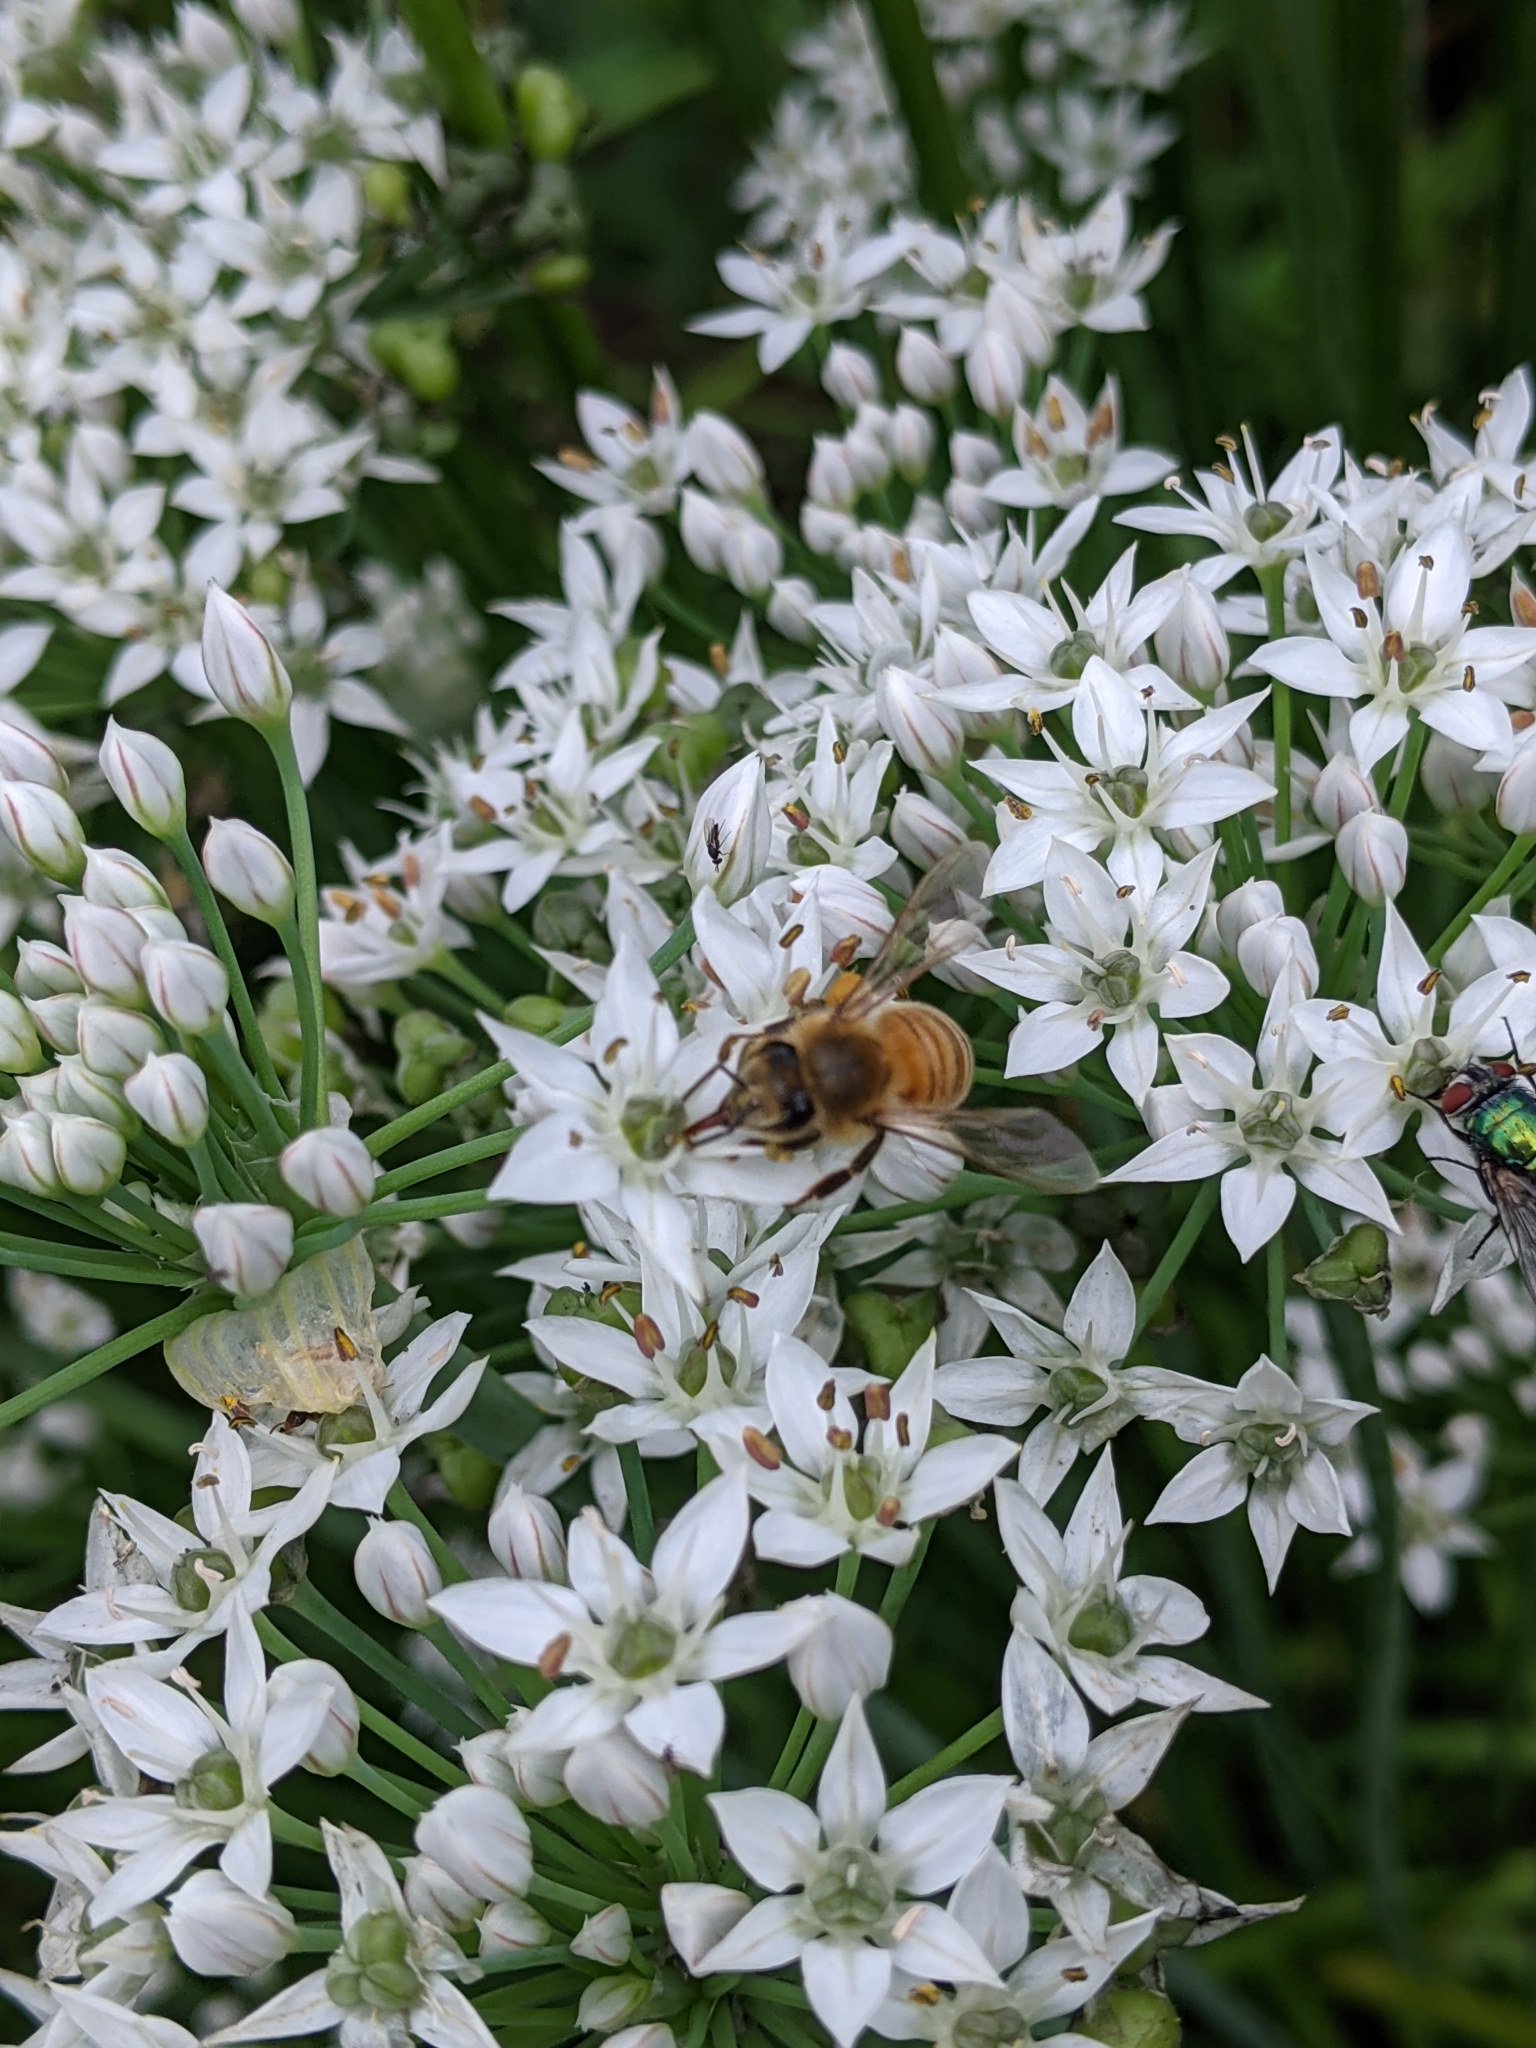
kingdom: Animalia
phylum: Arthropoda
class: Insecta
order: Hymenoptera
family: Apidae
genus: Apis
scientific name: Apis mellifera
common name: Honey bee
